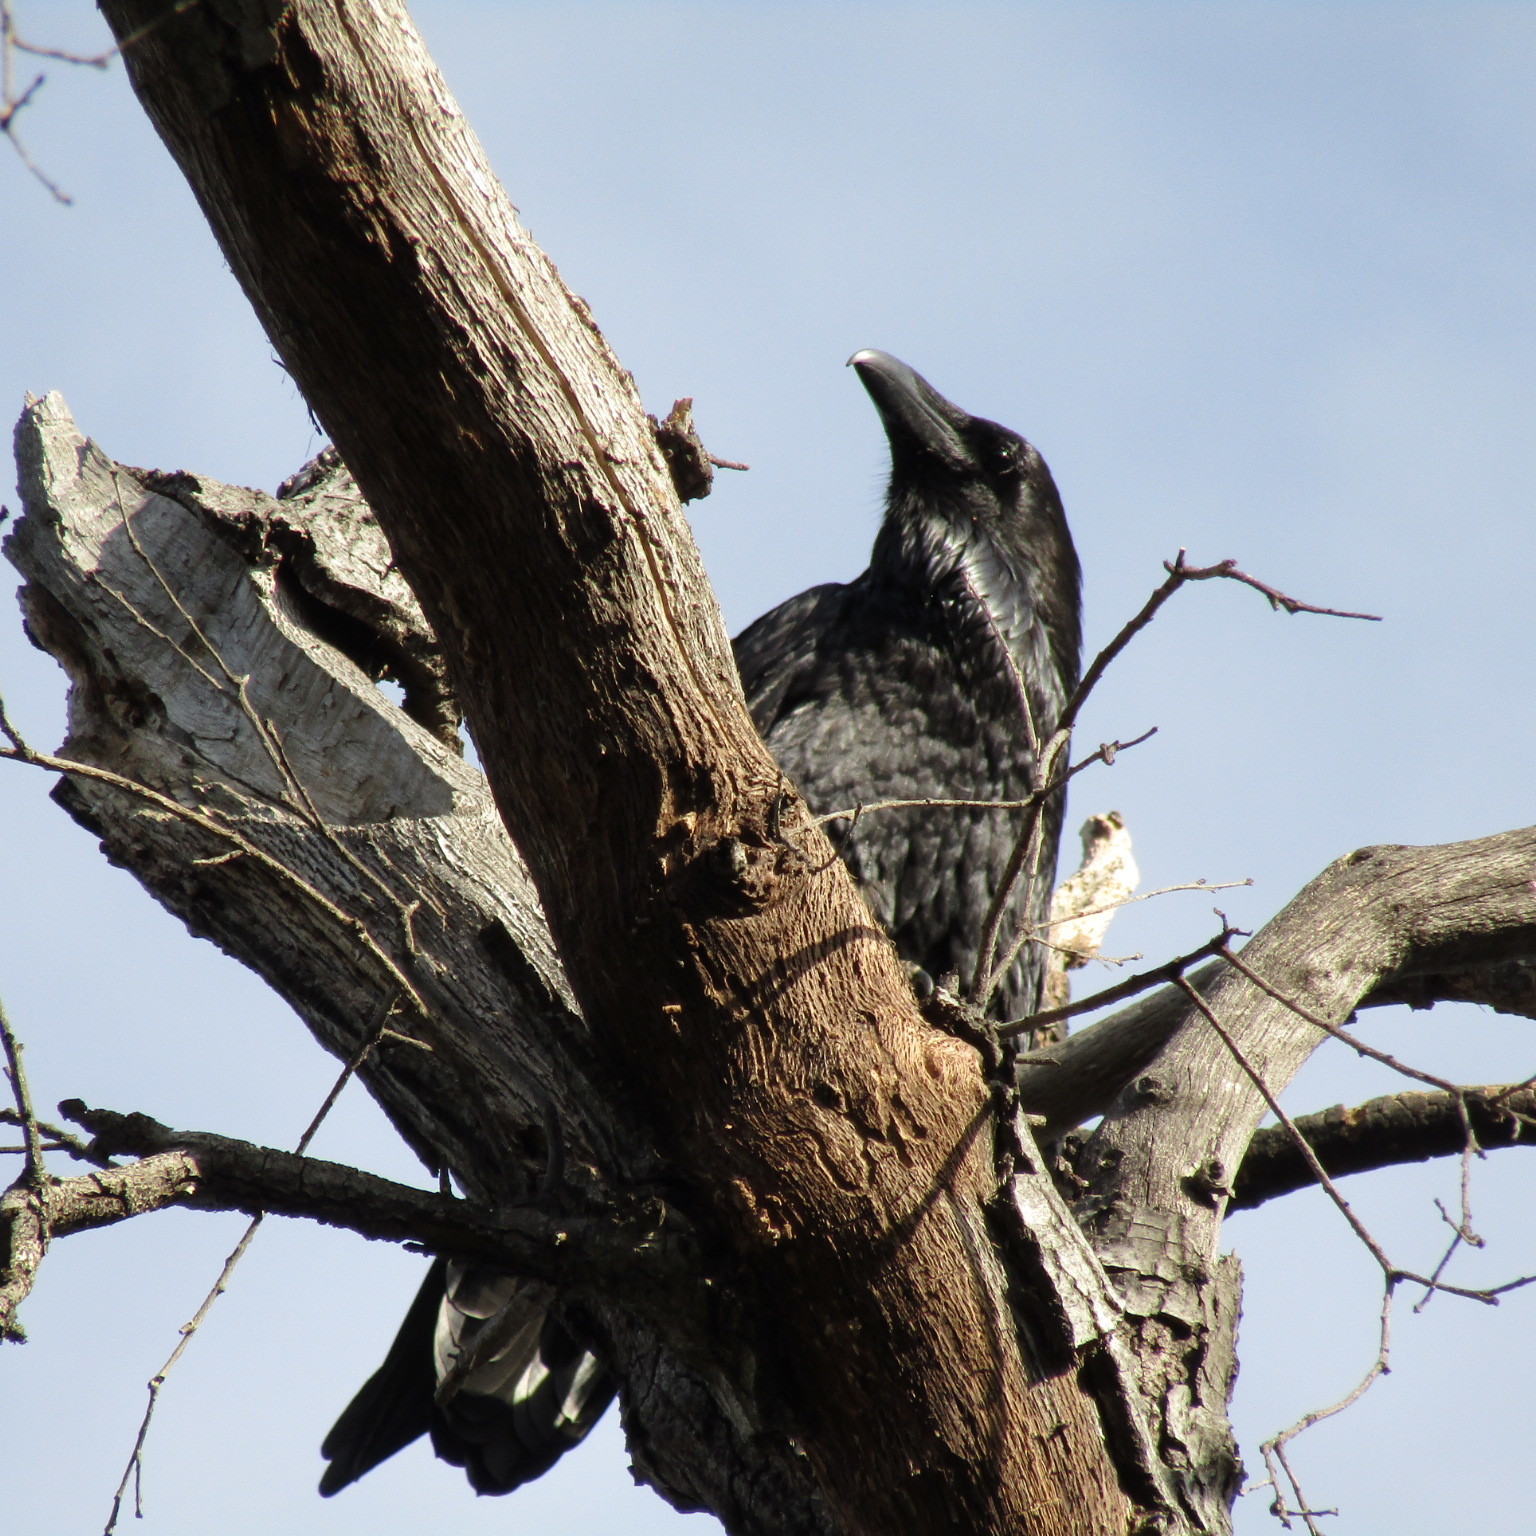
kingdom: Animalia
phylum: Chordata
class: Aves
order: Passeriformes
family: Corvidae
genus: Corvus
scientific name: Corvus corax
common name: Common raven
